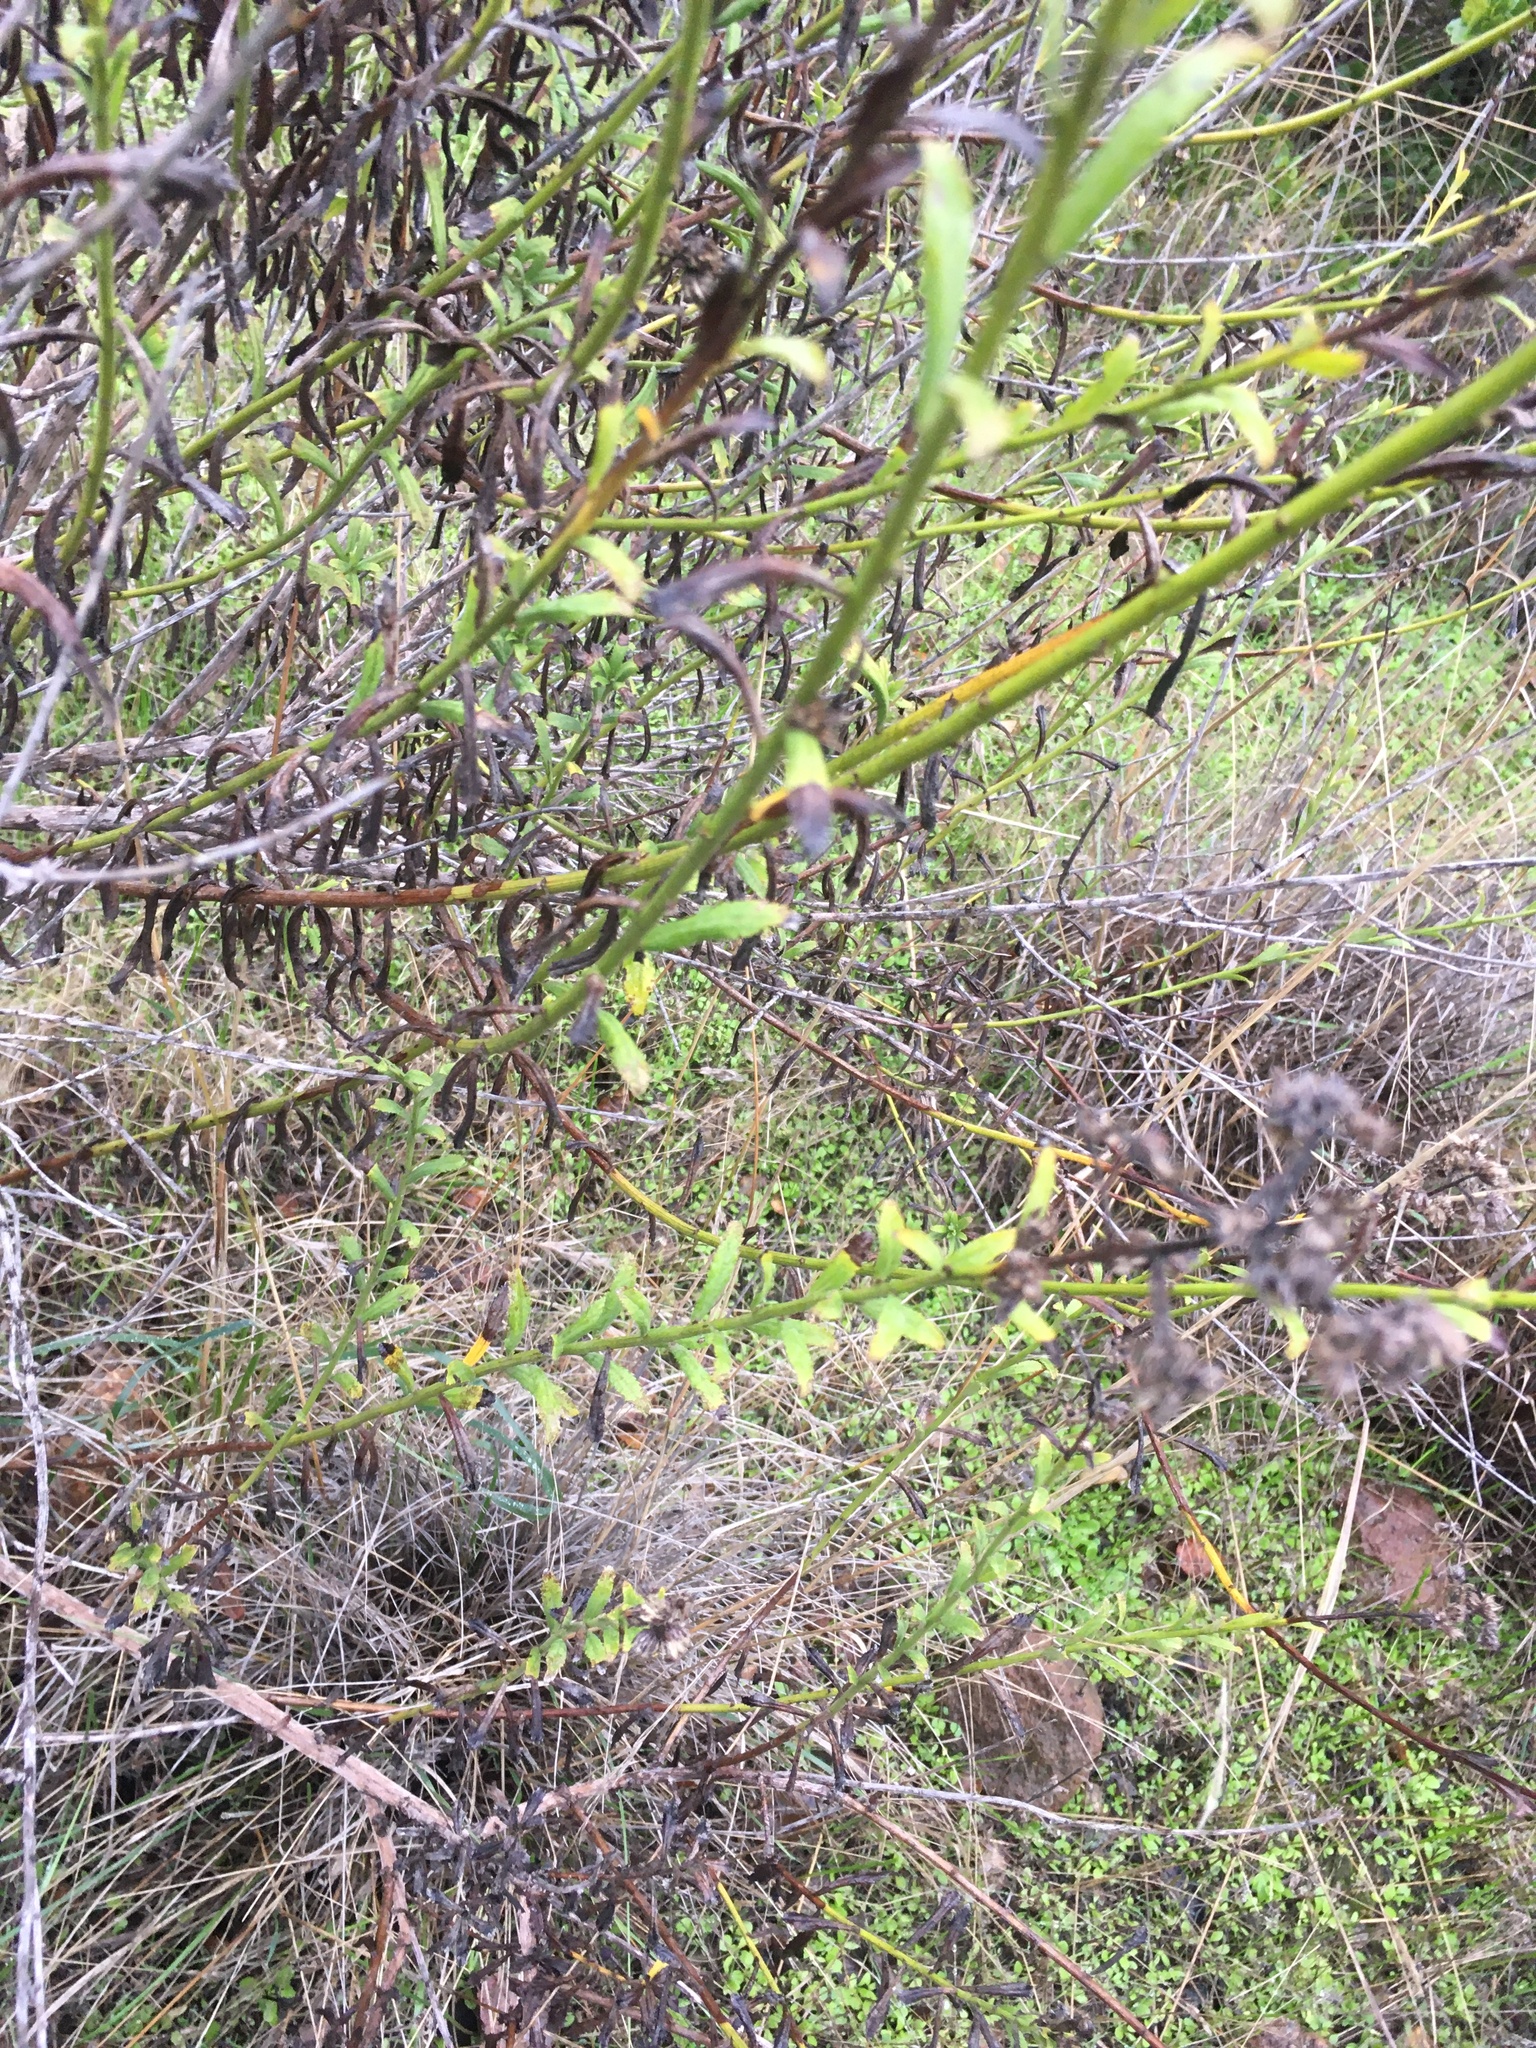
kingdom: Plantae
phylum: Tracheophyta
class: Magnoliopsida
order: Asterales
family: Asteraceae
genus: Baccharis
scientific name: Baccharis plummerae
